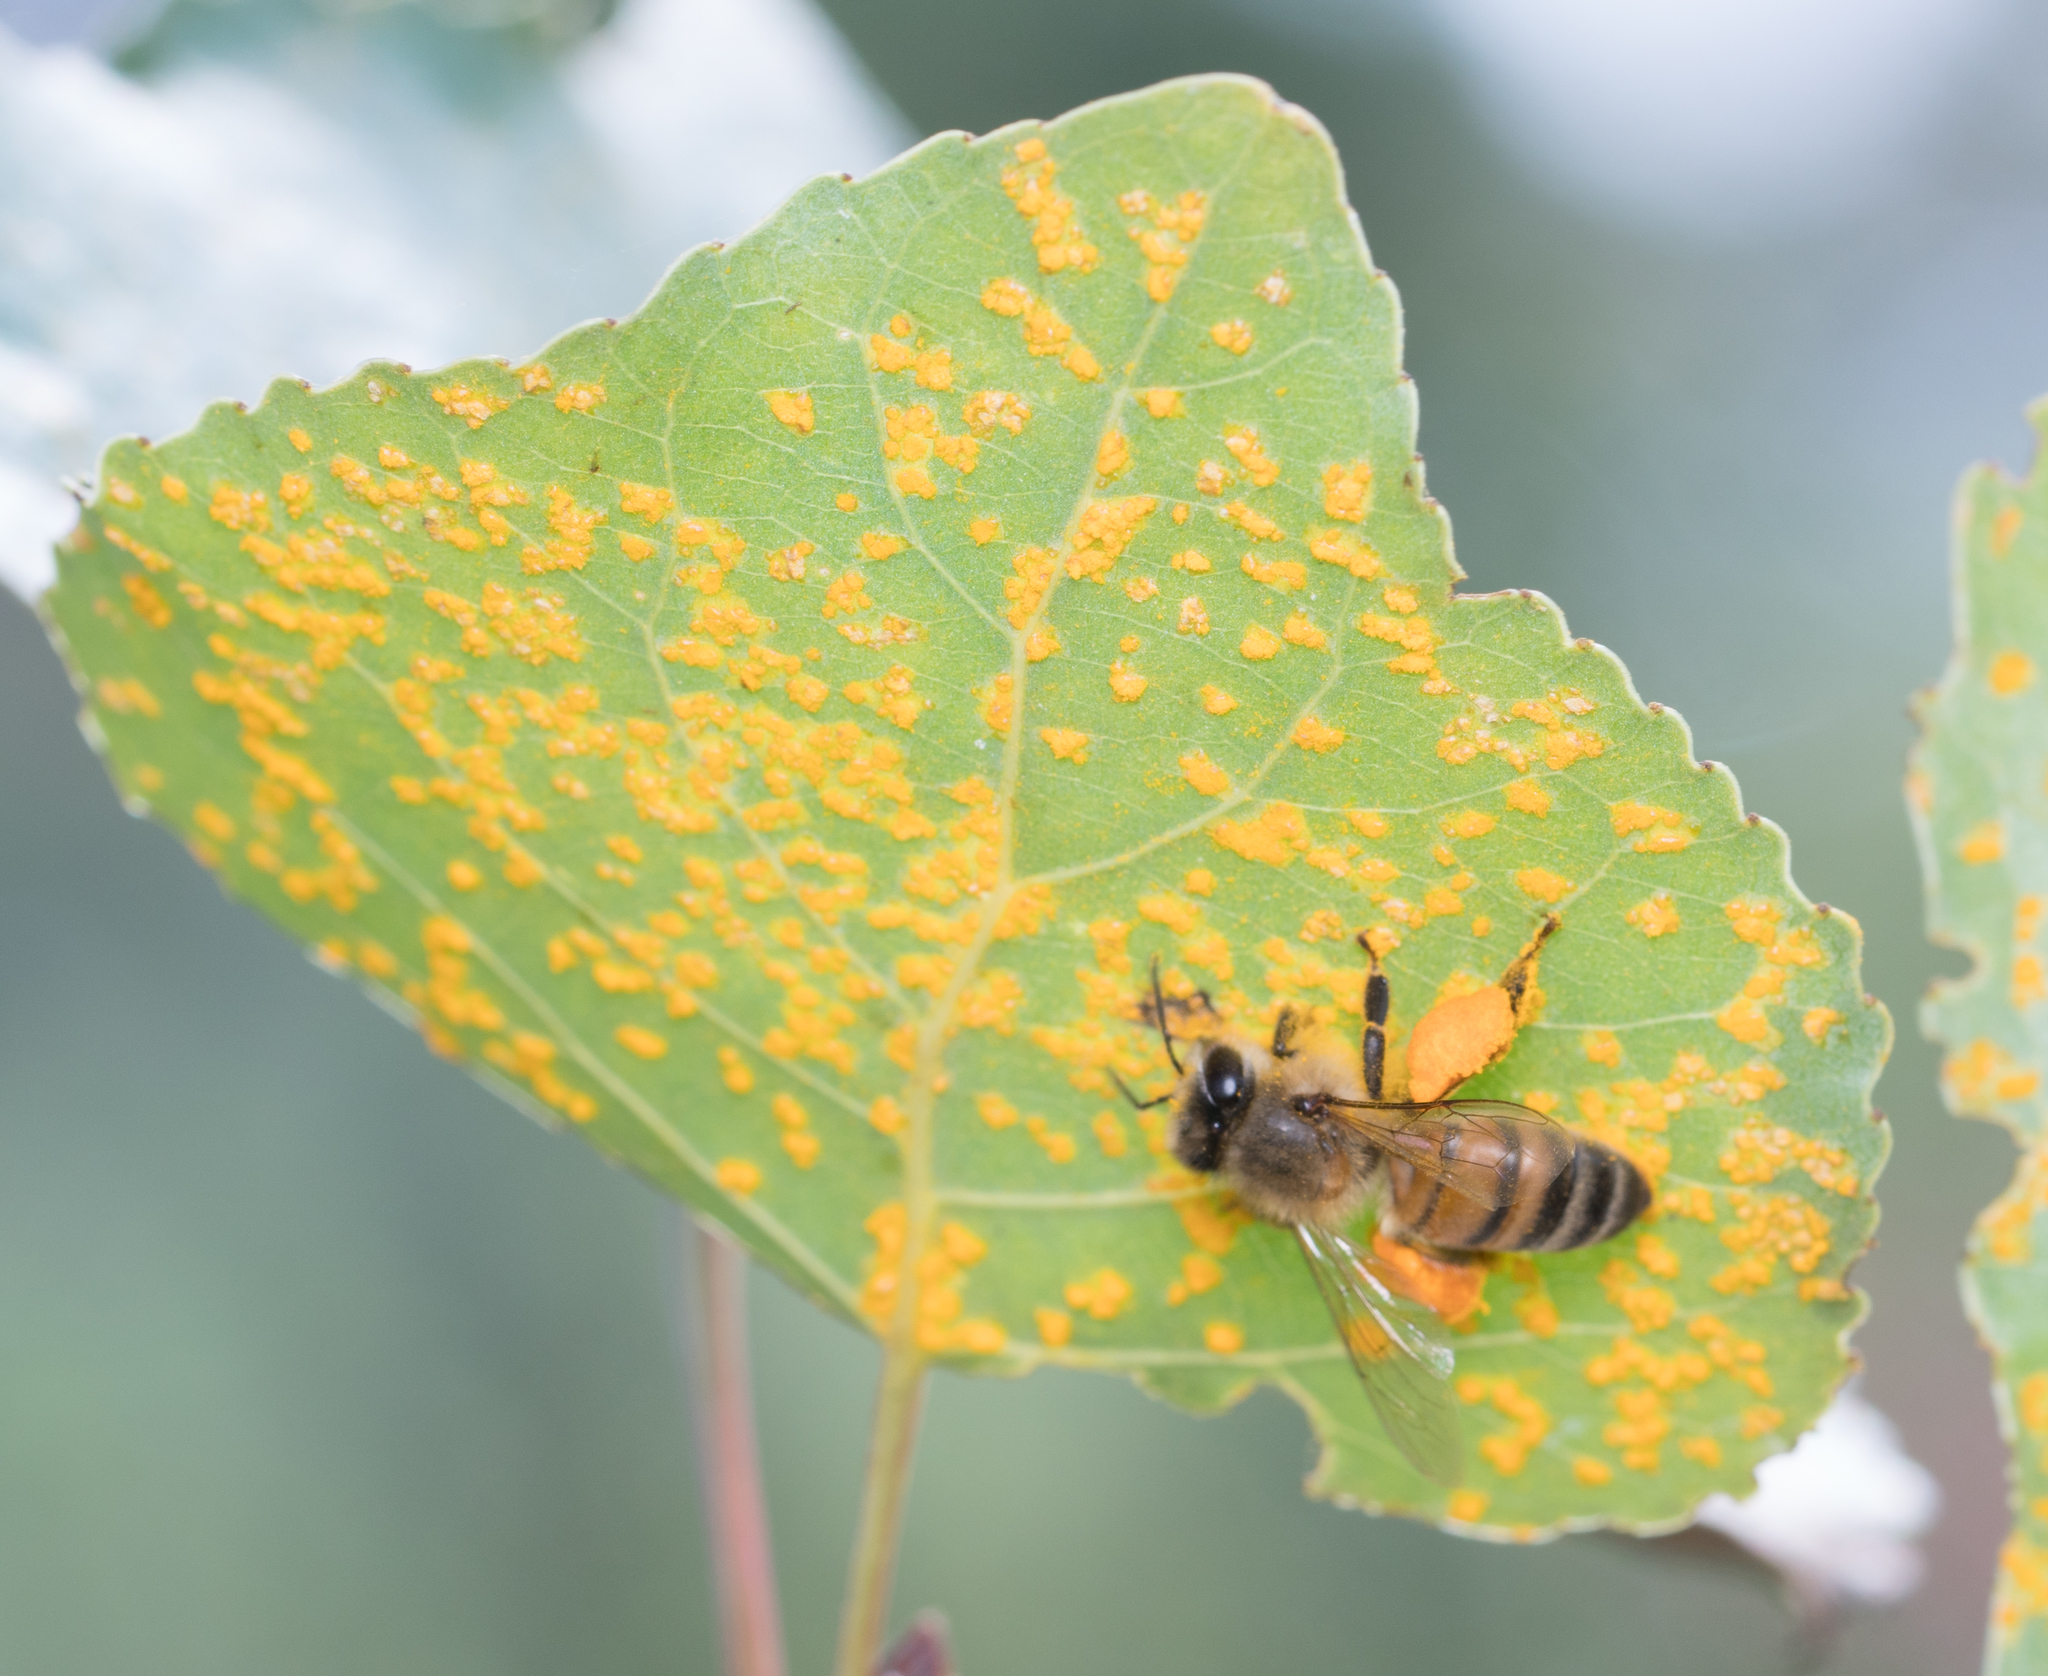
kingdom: Animalia
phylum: Arthropoda
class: Insecta
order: Hymenoptera
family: Apidae
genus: Apis
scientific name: Apis mellifera
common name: Honey bee
